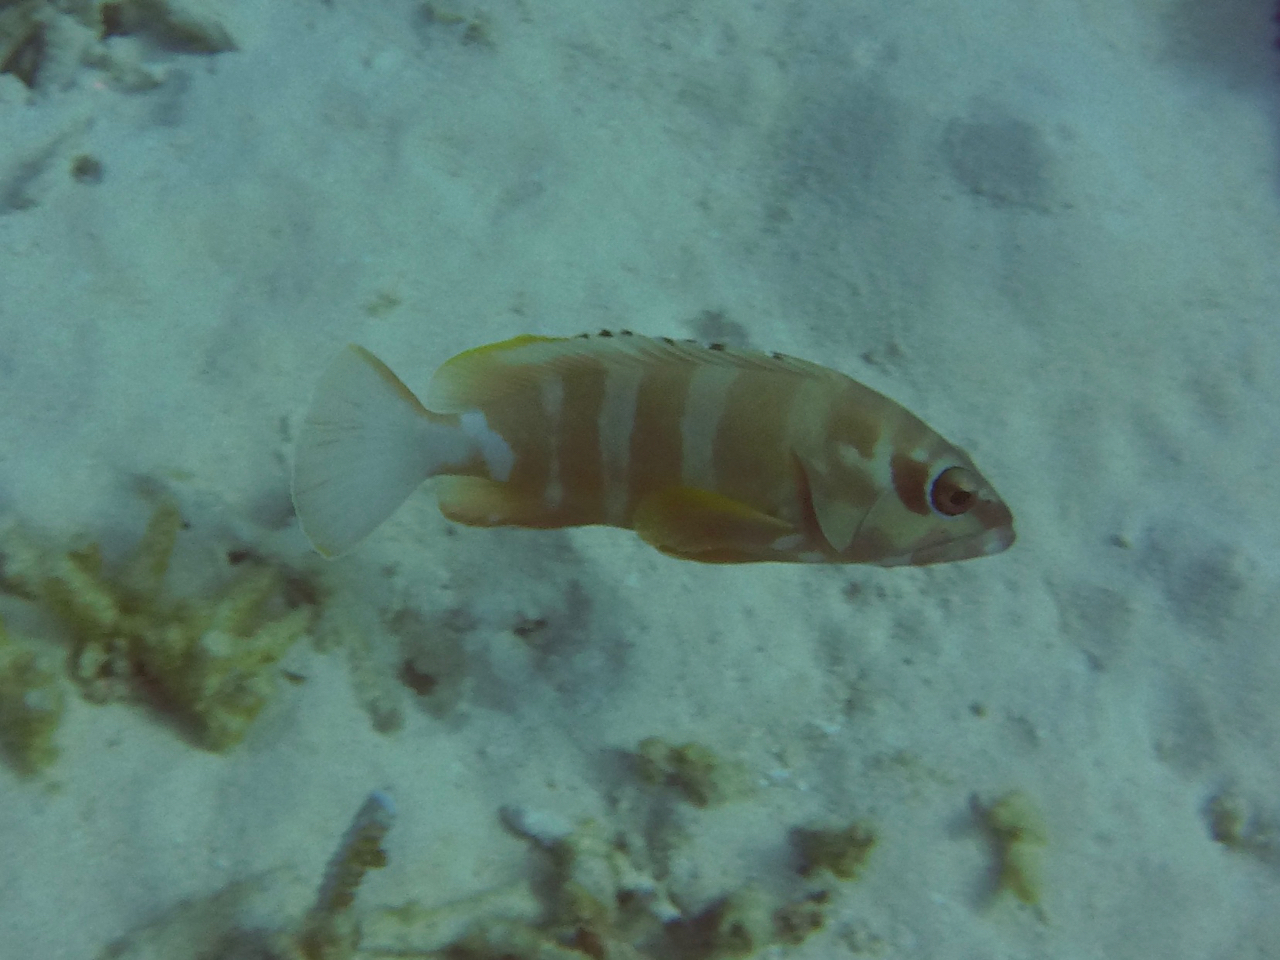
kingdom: Animalia
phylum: Chordata
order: Perciformes
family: Serranidae
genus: Epinephelus
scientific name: Epinephelus fasciatus
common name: Blacktip grouper
